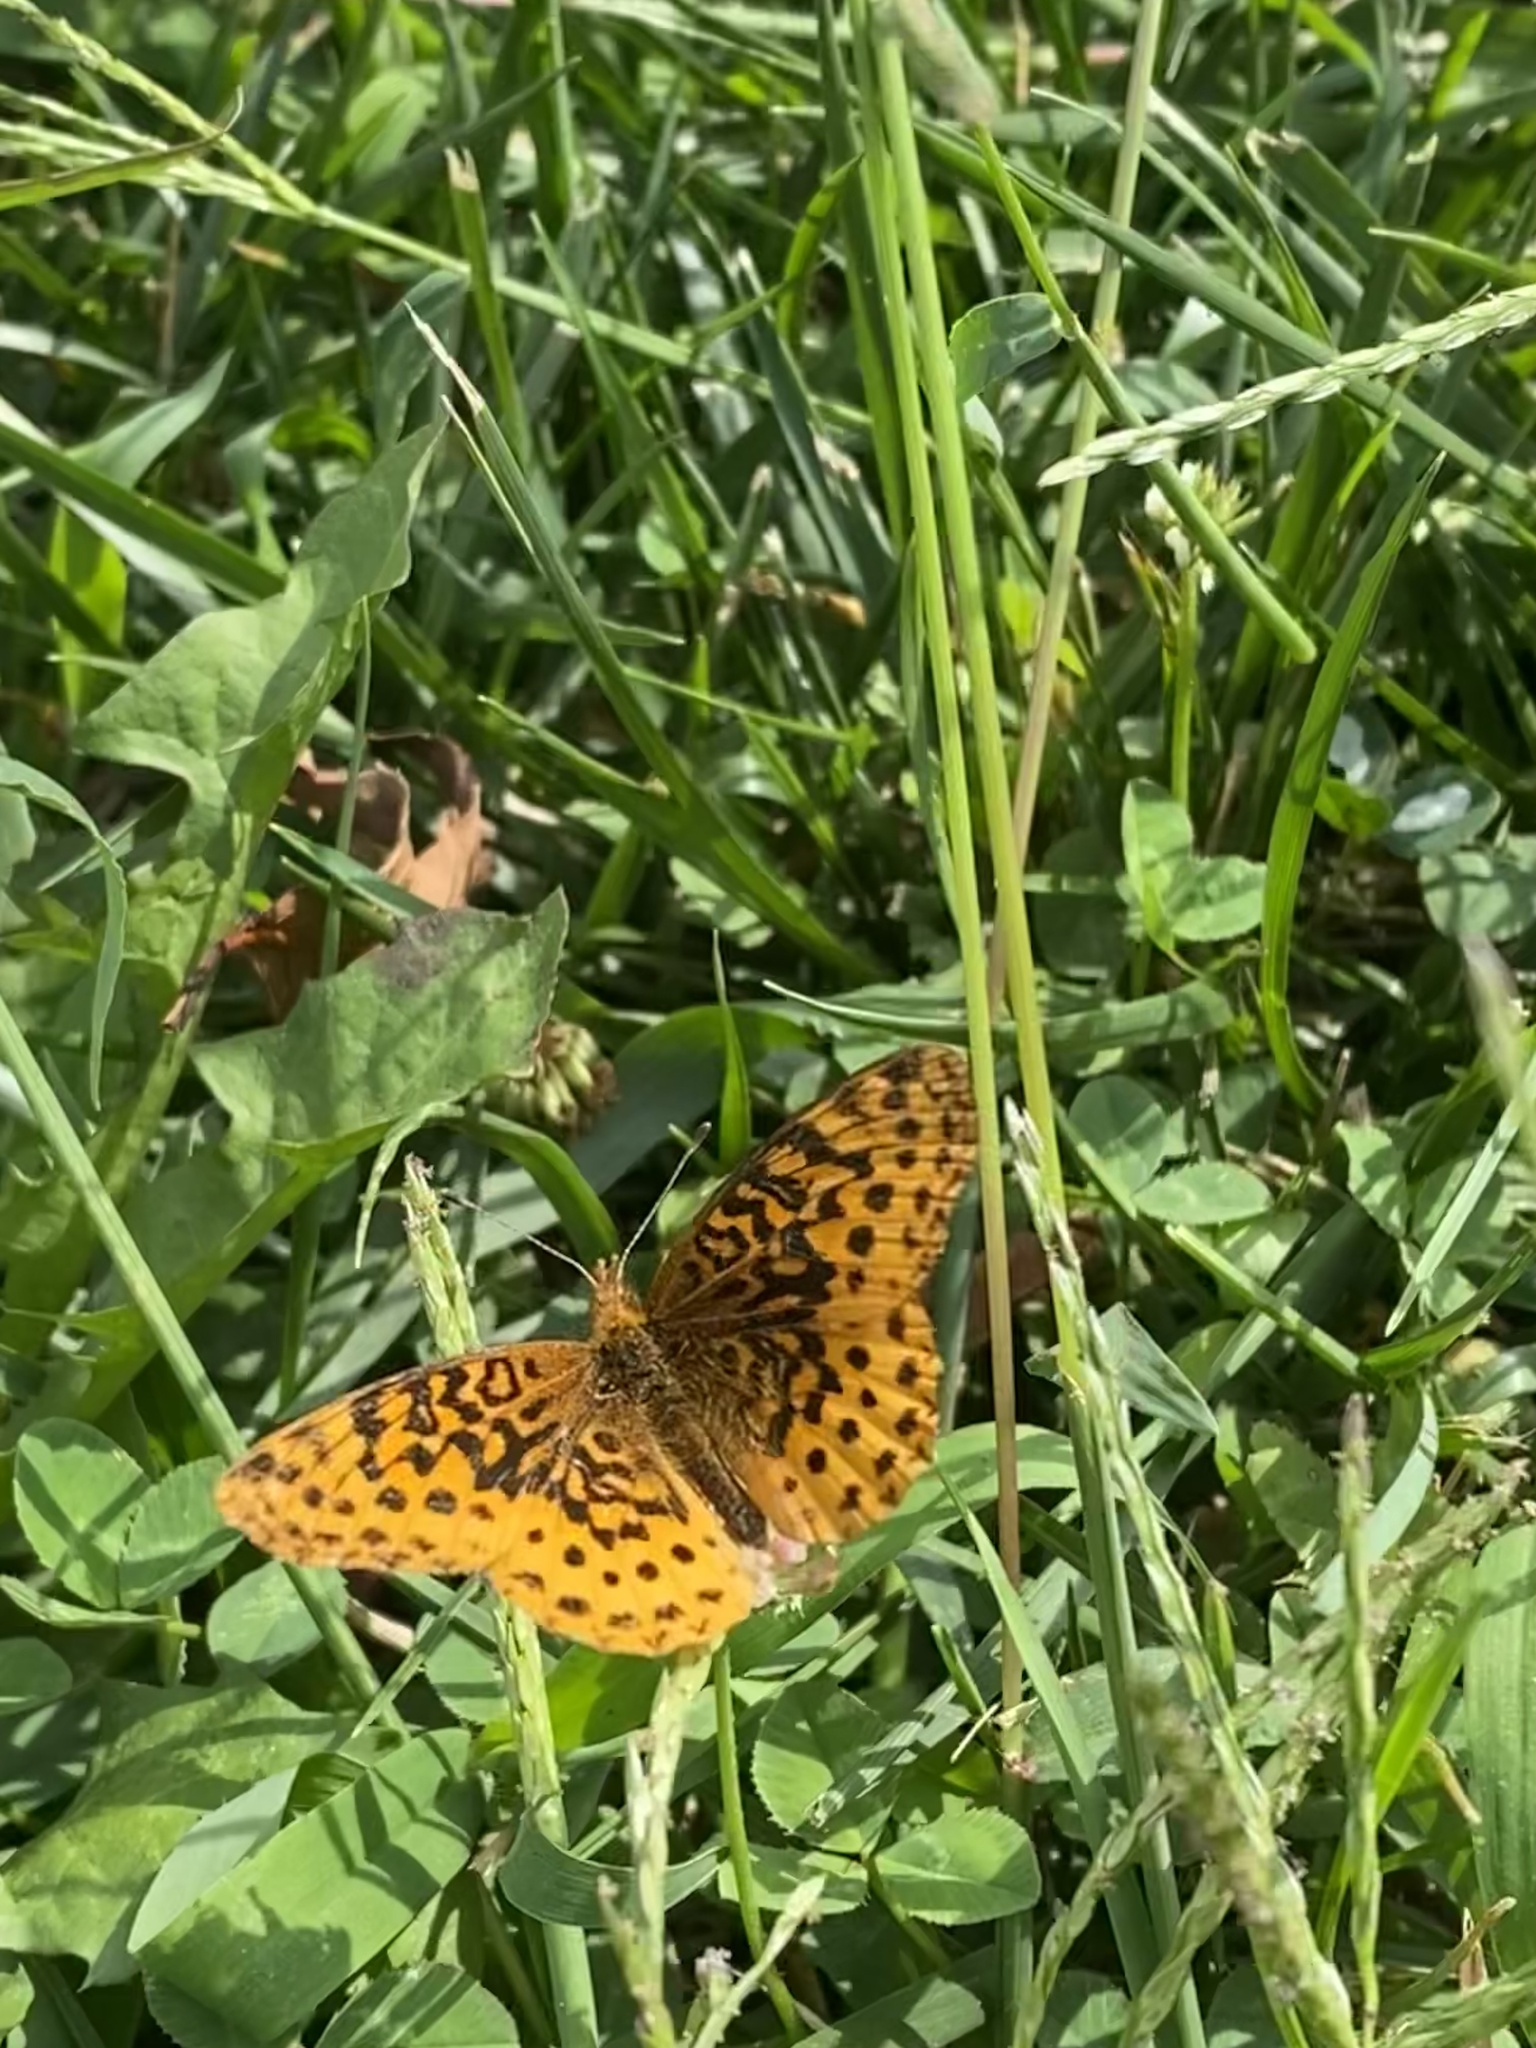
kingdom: Animalia
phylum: Arthropoda
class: Insecta
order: Lepidoptera
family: Nymphalidae
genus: Clossiana
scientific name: Clossiana toddi
